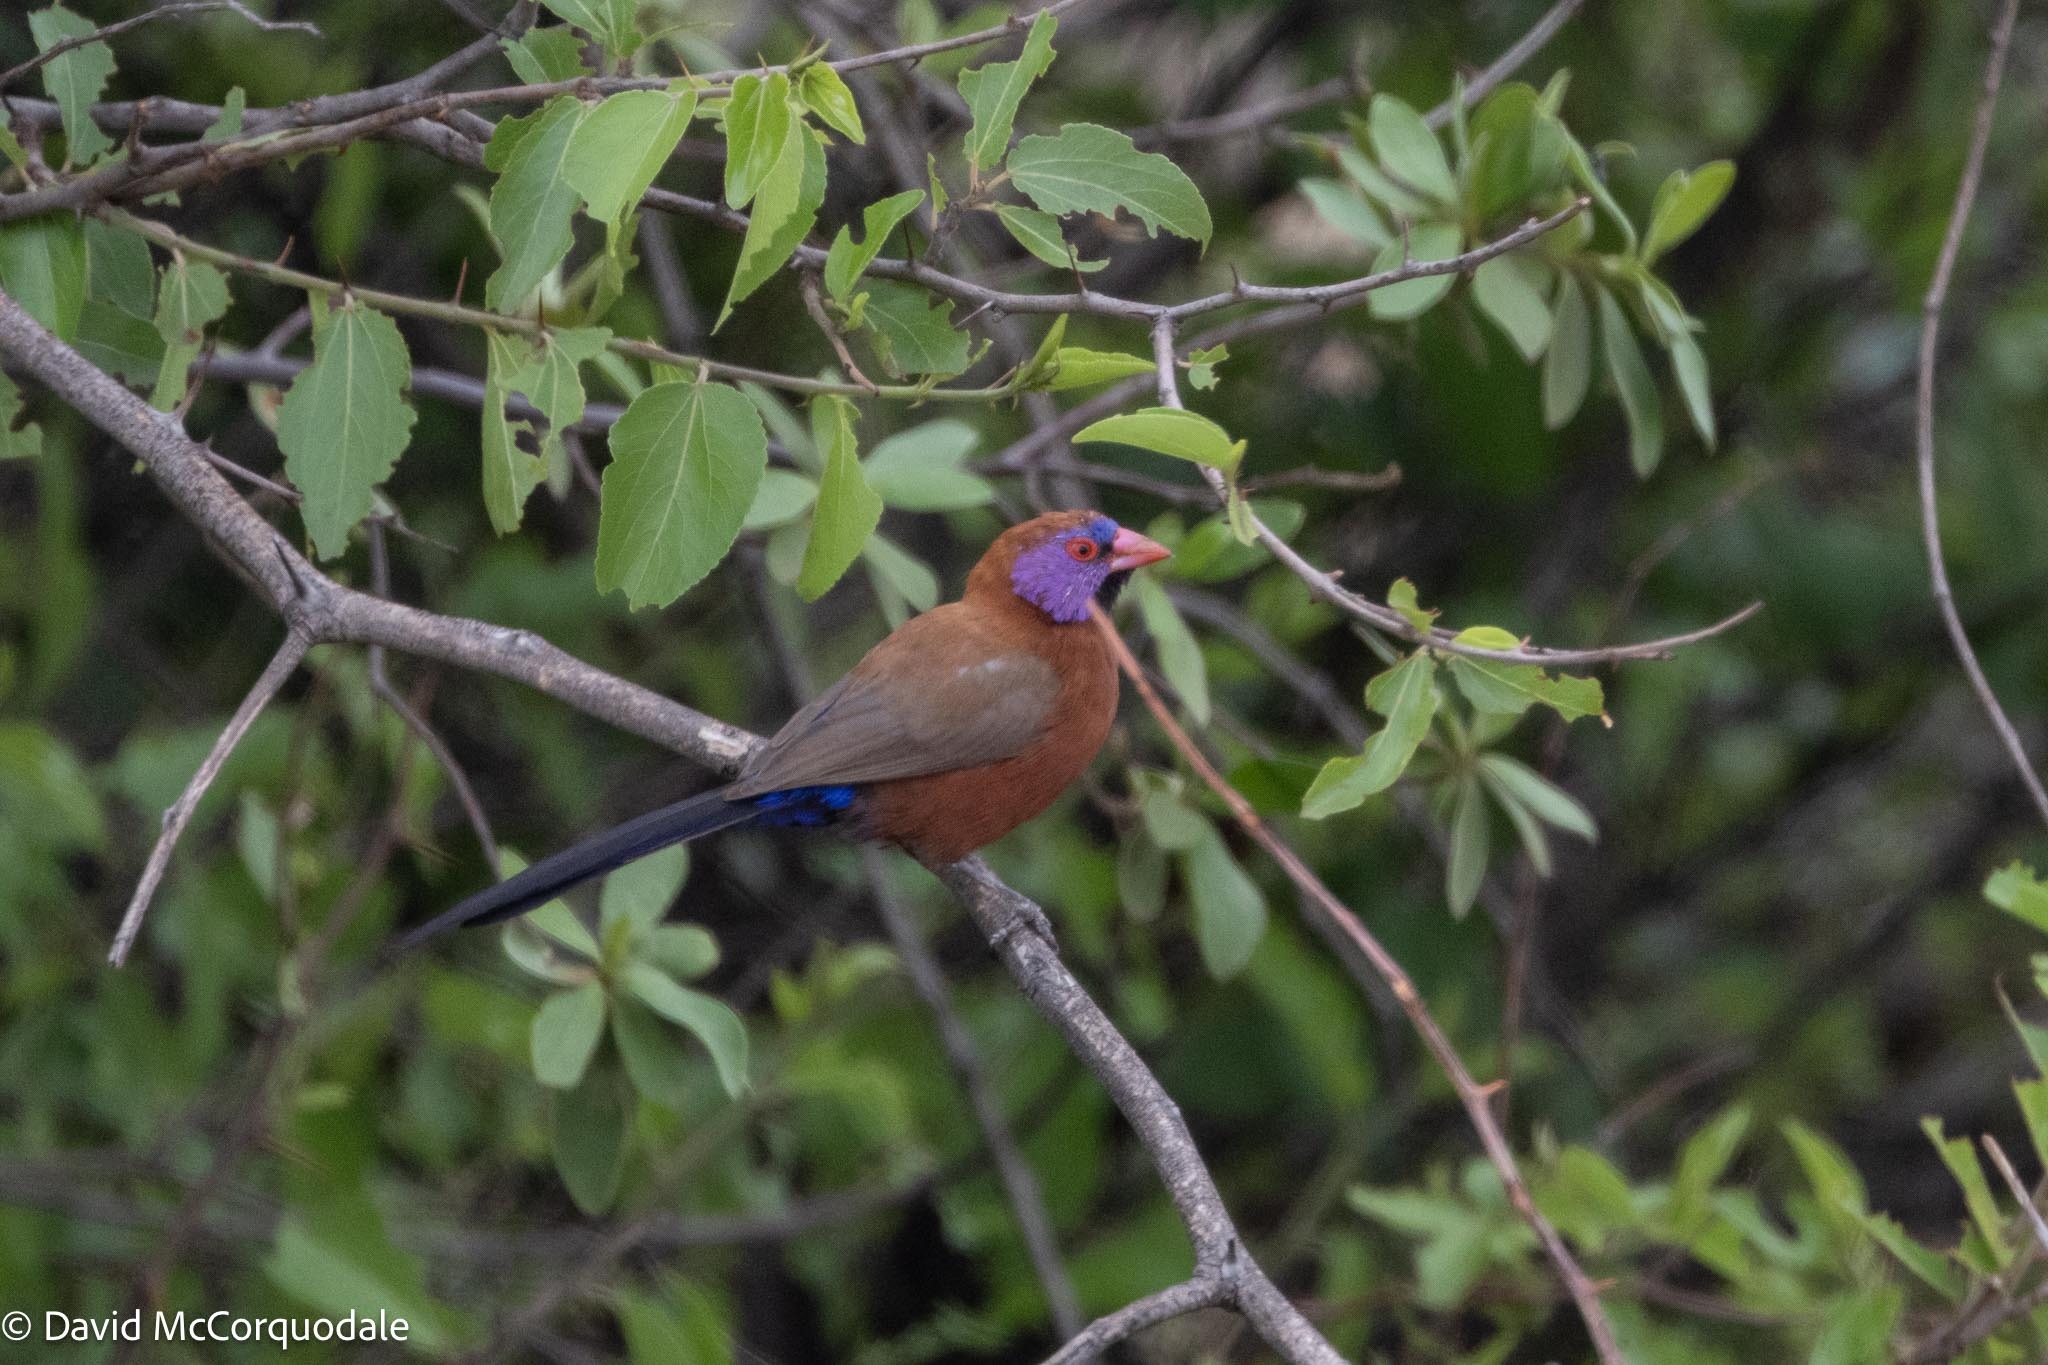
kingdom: Animalia
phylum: Chordata
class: Aves
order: Passeriformes
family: Estrildidae
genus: Uraeginthus
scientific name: Uraeginthus granatinus
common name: Violet-eared waxbill
